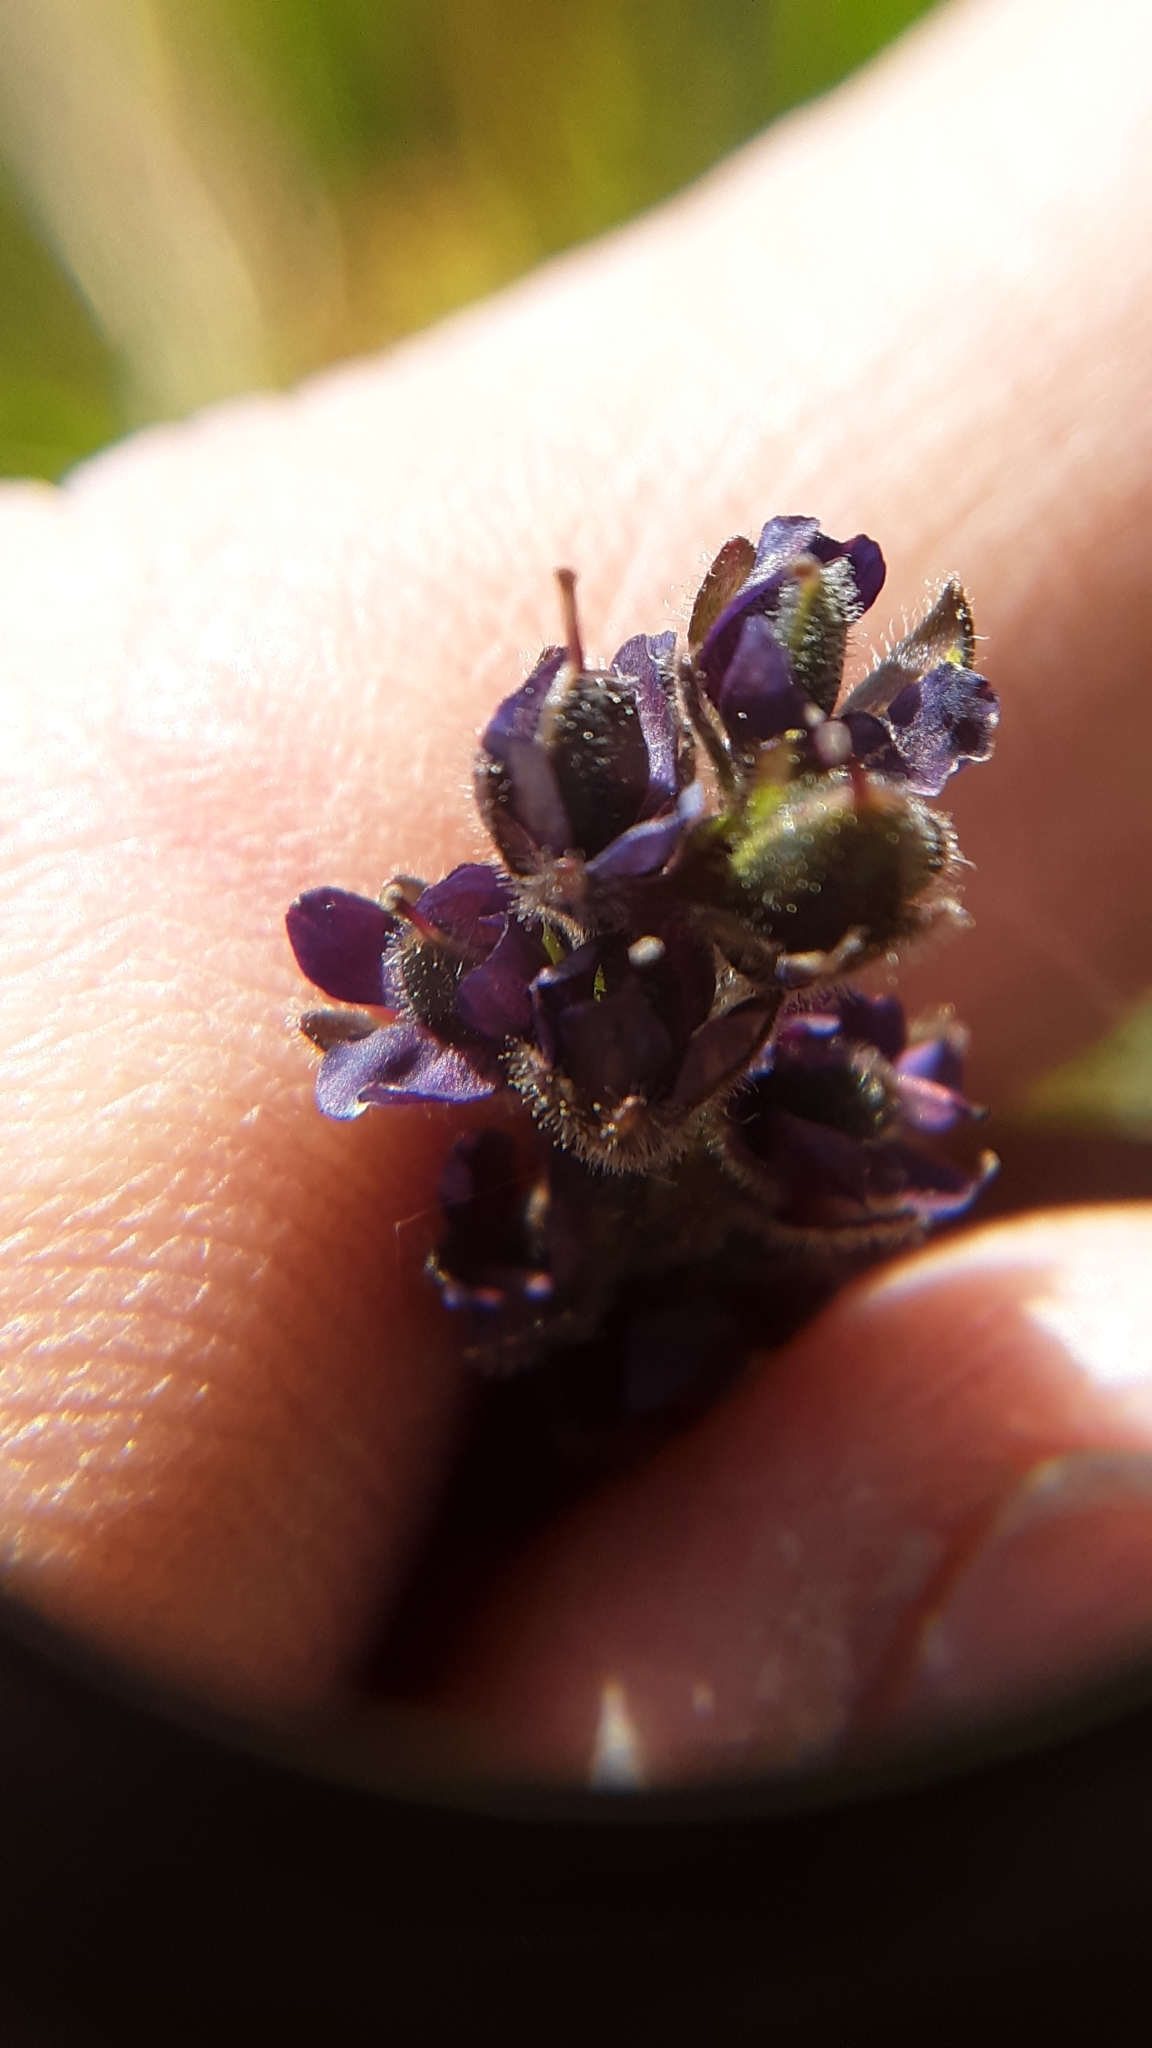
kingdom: Plantae
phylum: Tracheophyta
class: Magnoliopsida
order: Lamiales
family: Plantaginaceae
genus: Veronica
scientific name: Veronica wormskjoldii
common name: American alpine speedwell
